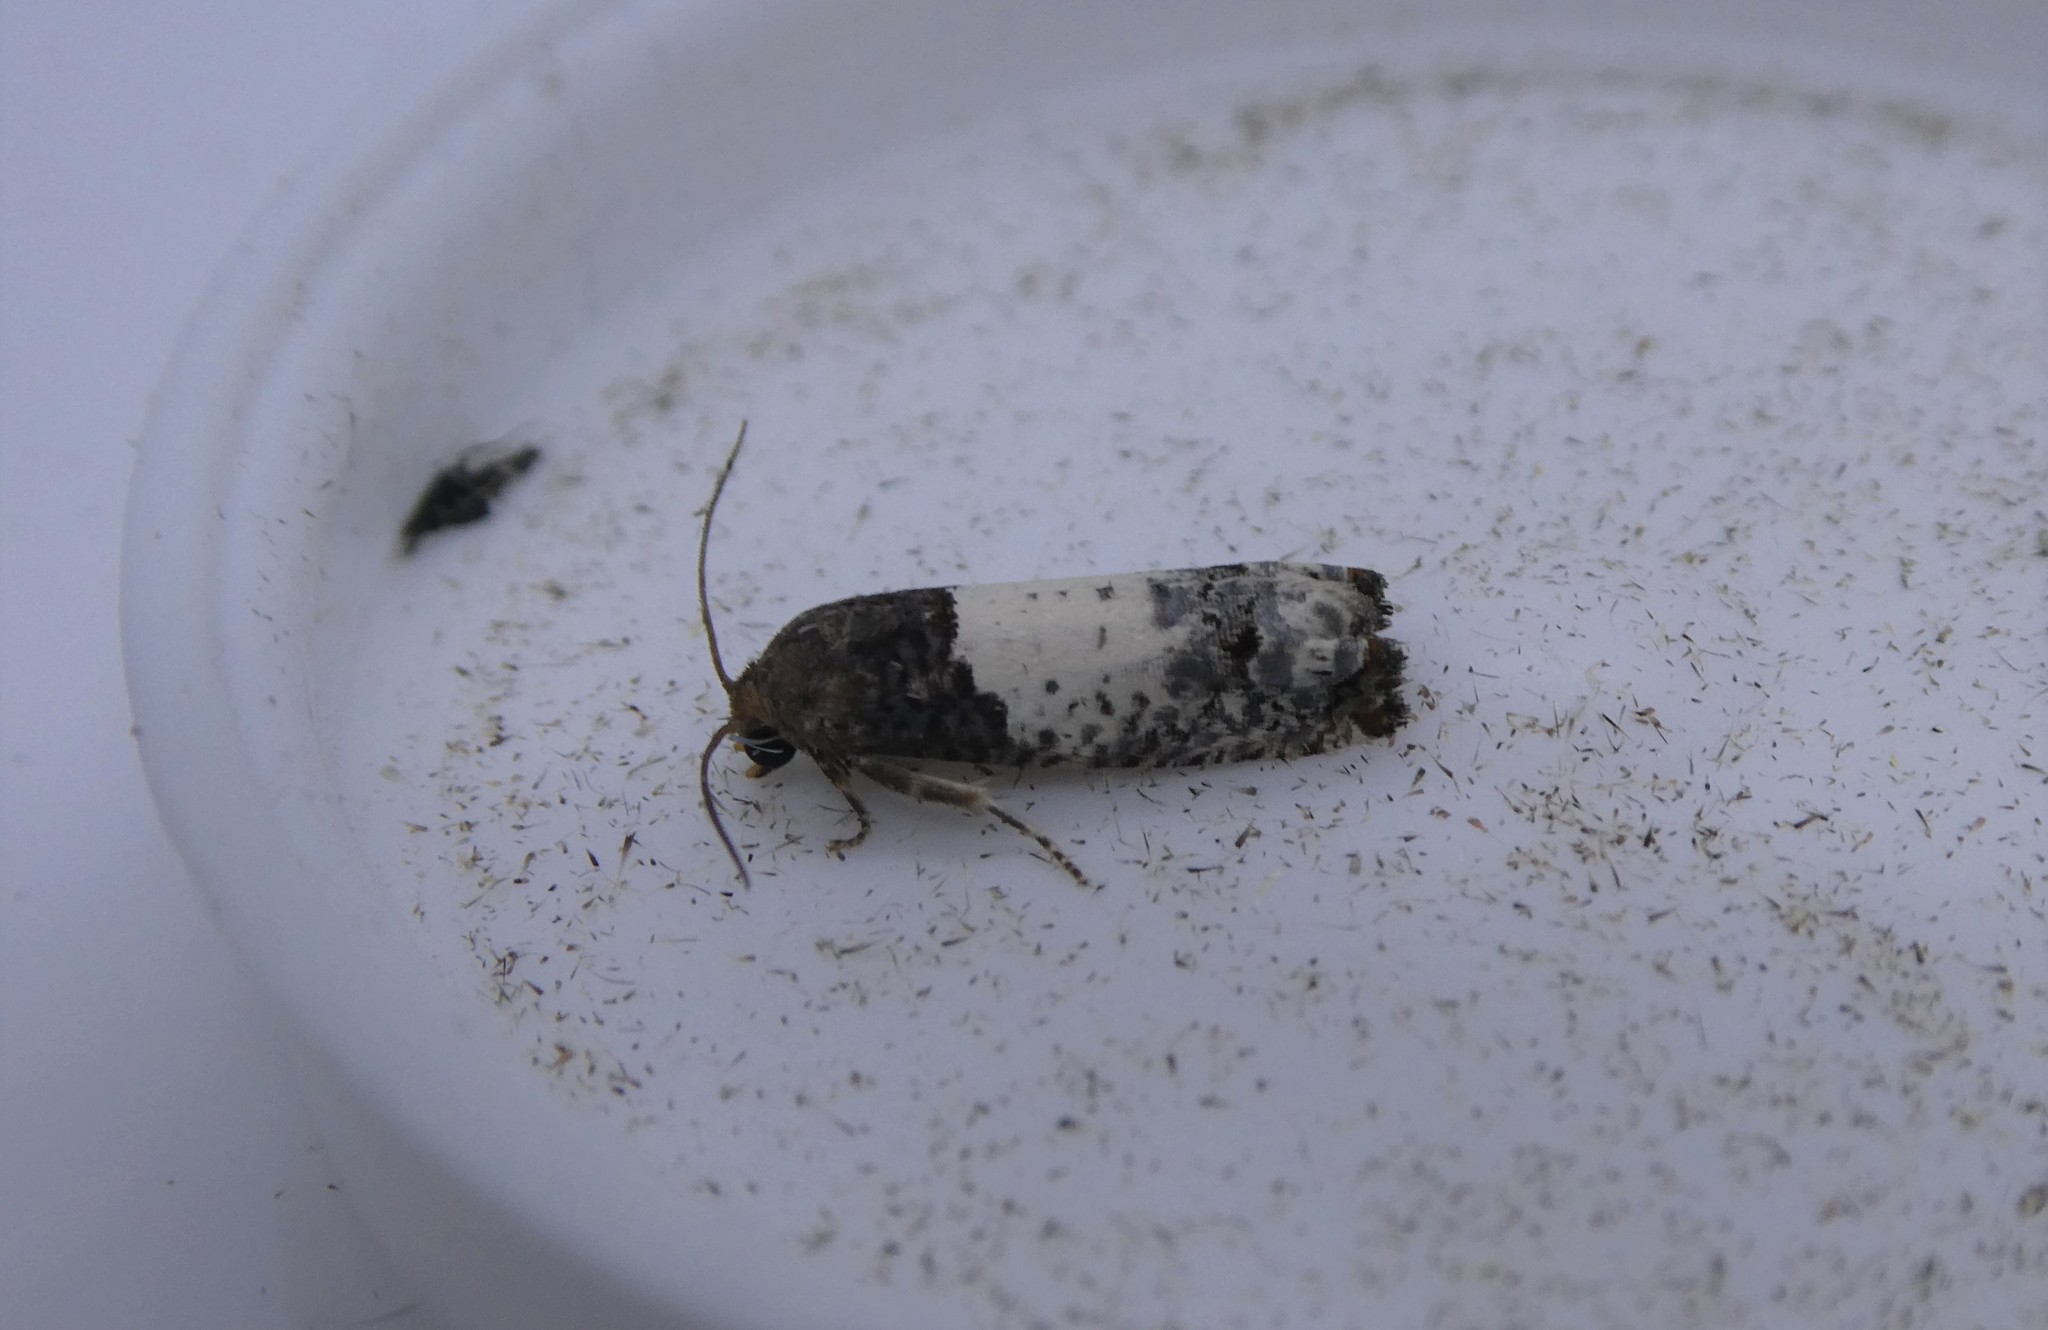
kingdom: Animalia
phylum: Arthropoda
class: Insecta
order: Lepidoptera
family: Tortricidae
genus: Epiblema
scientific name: Epiblema scudderiana
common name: Goldenrod gall moth
